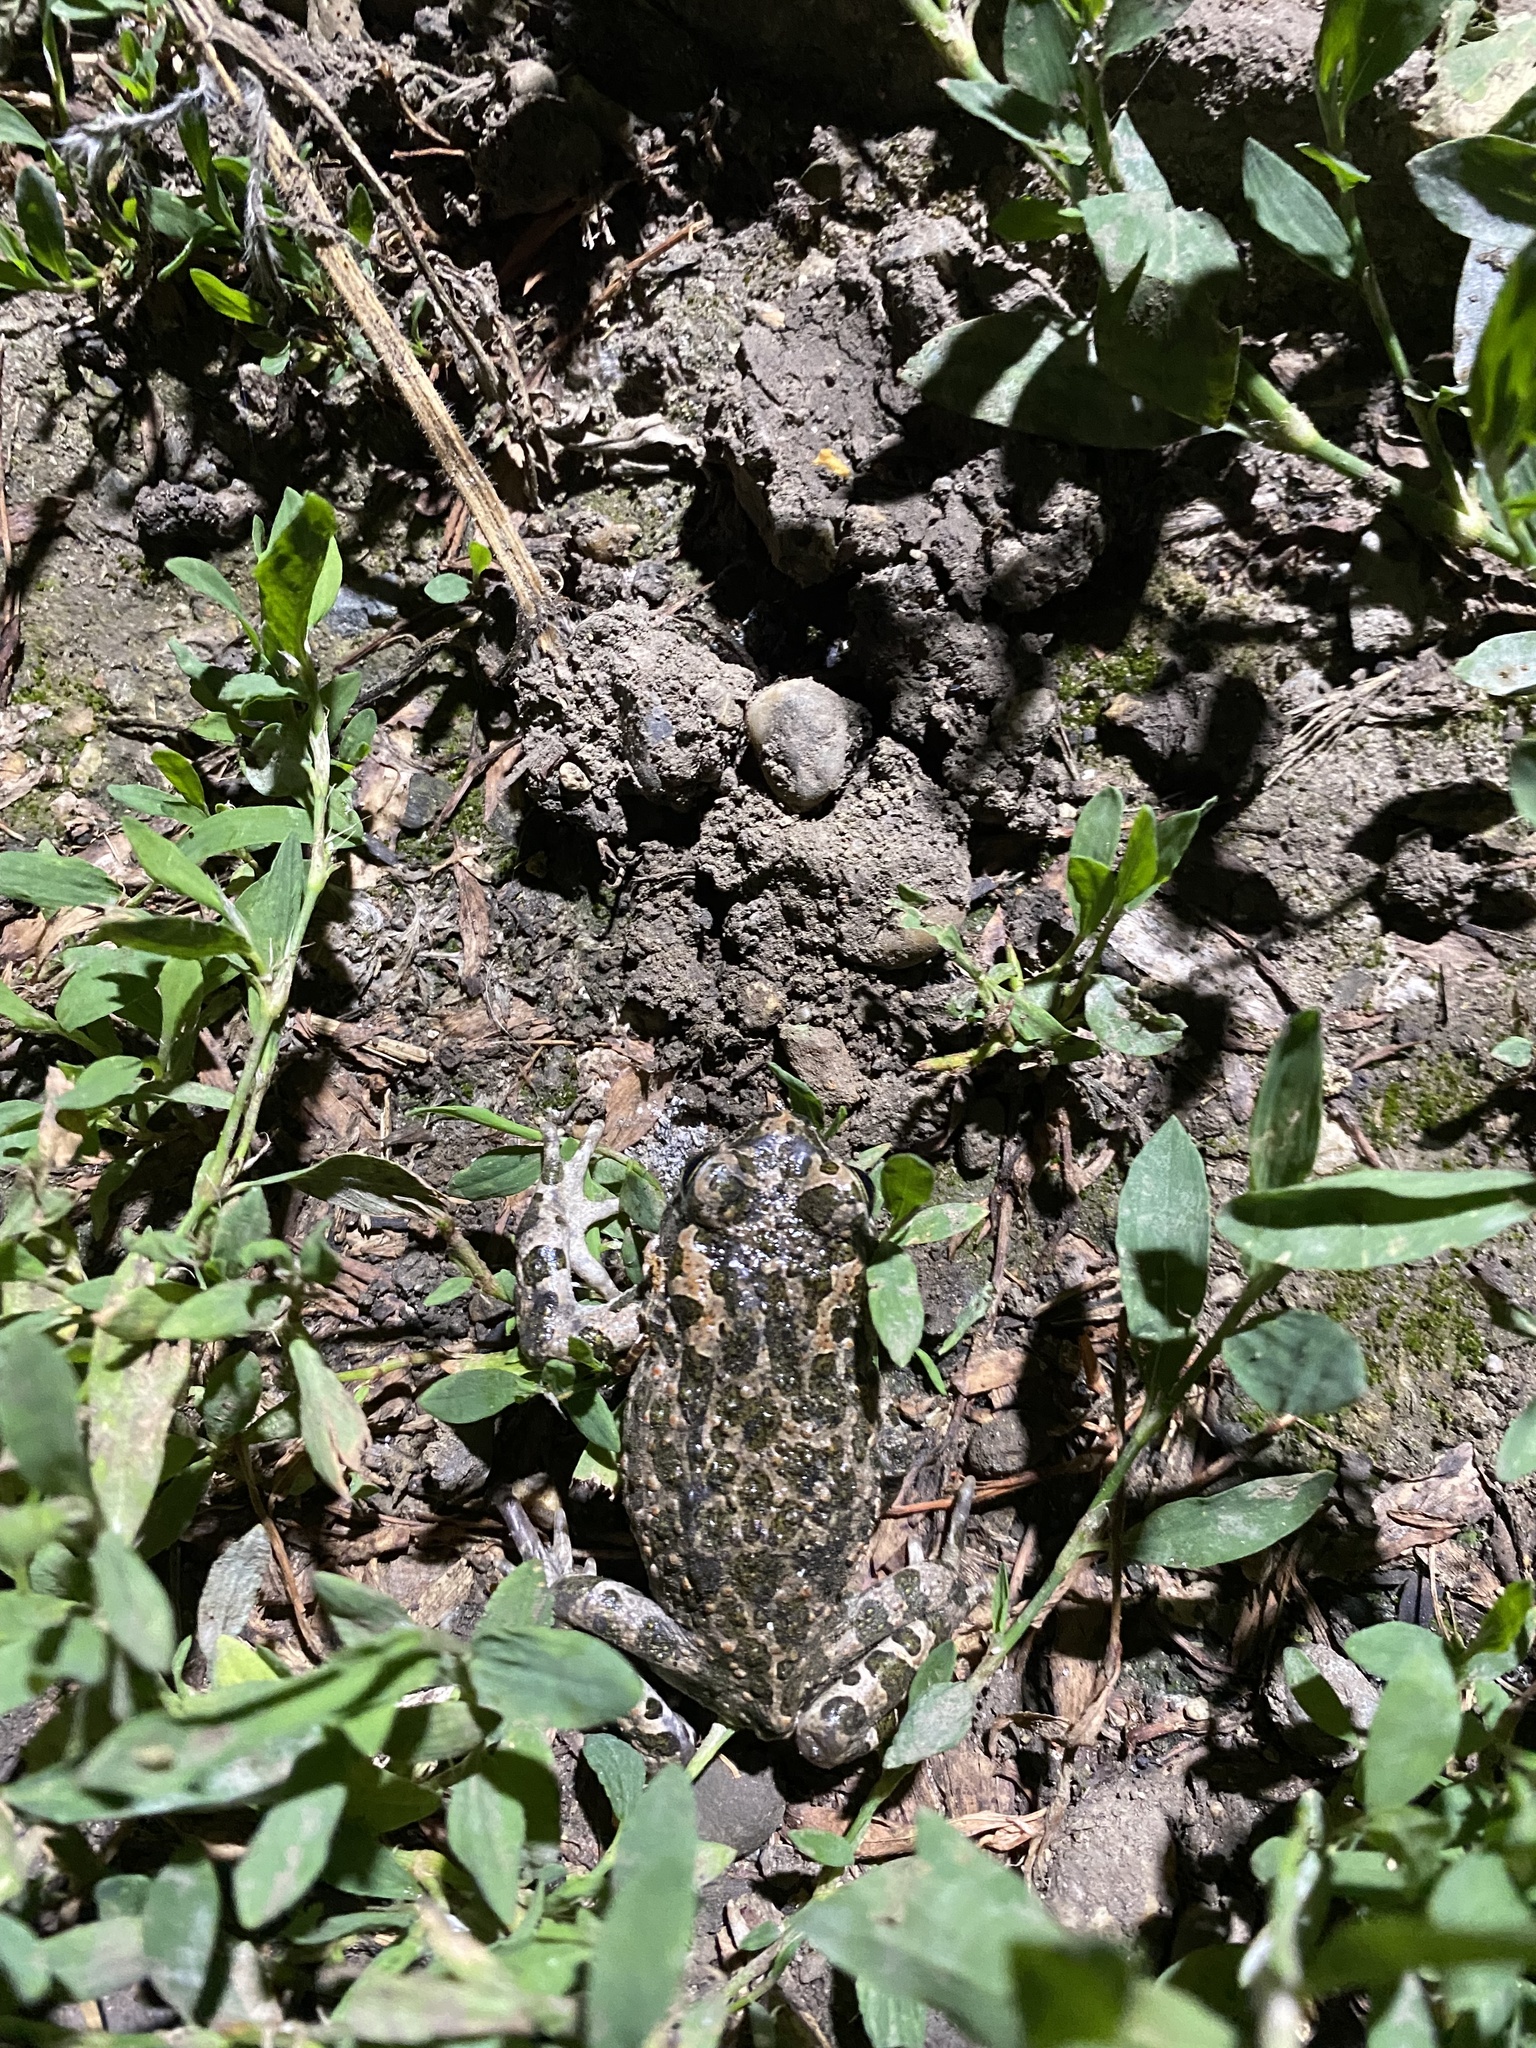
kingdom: Animalia
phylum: Chordata
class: Amphibia
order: Anura
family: Bufonidae
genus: Bufotes
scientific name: Bufotes viridis
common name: European green toad
